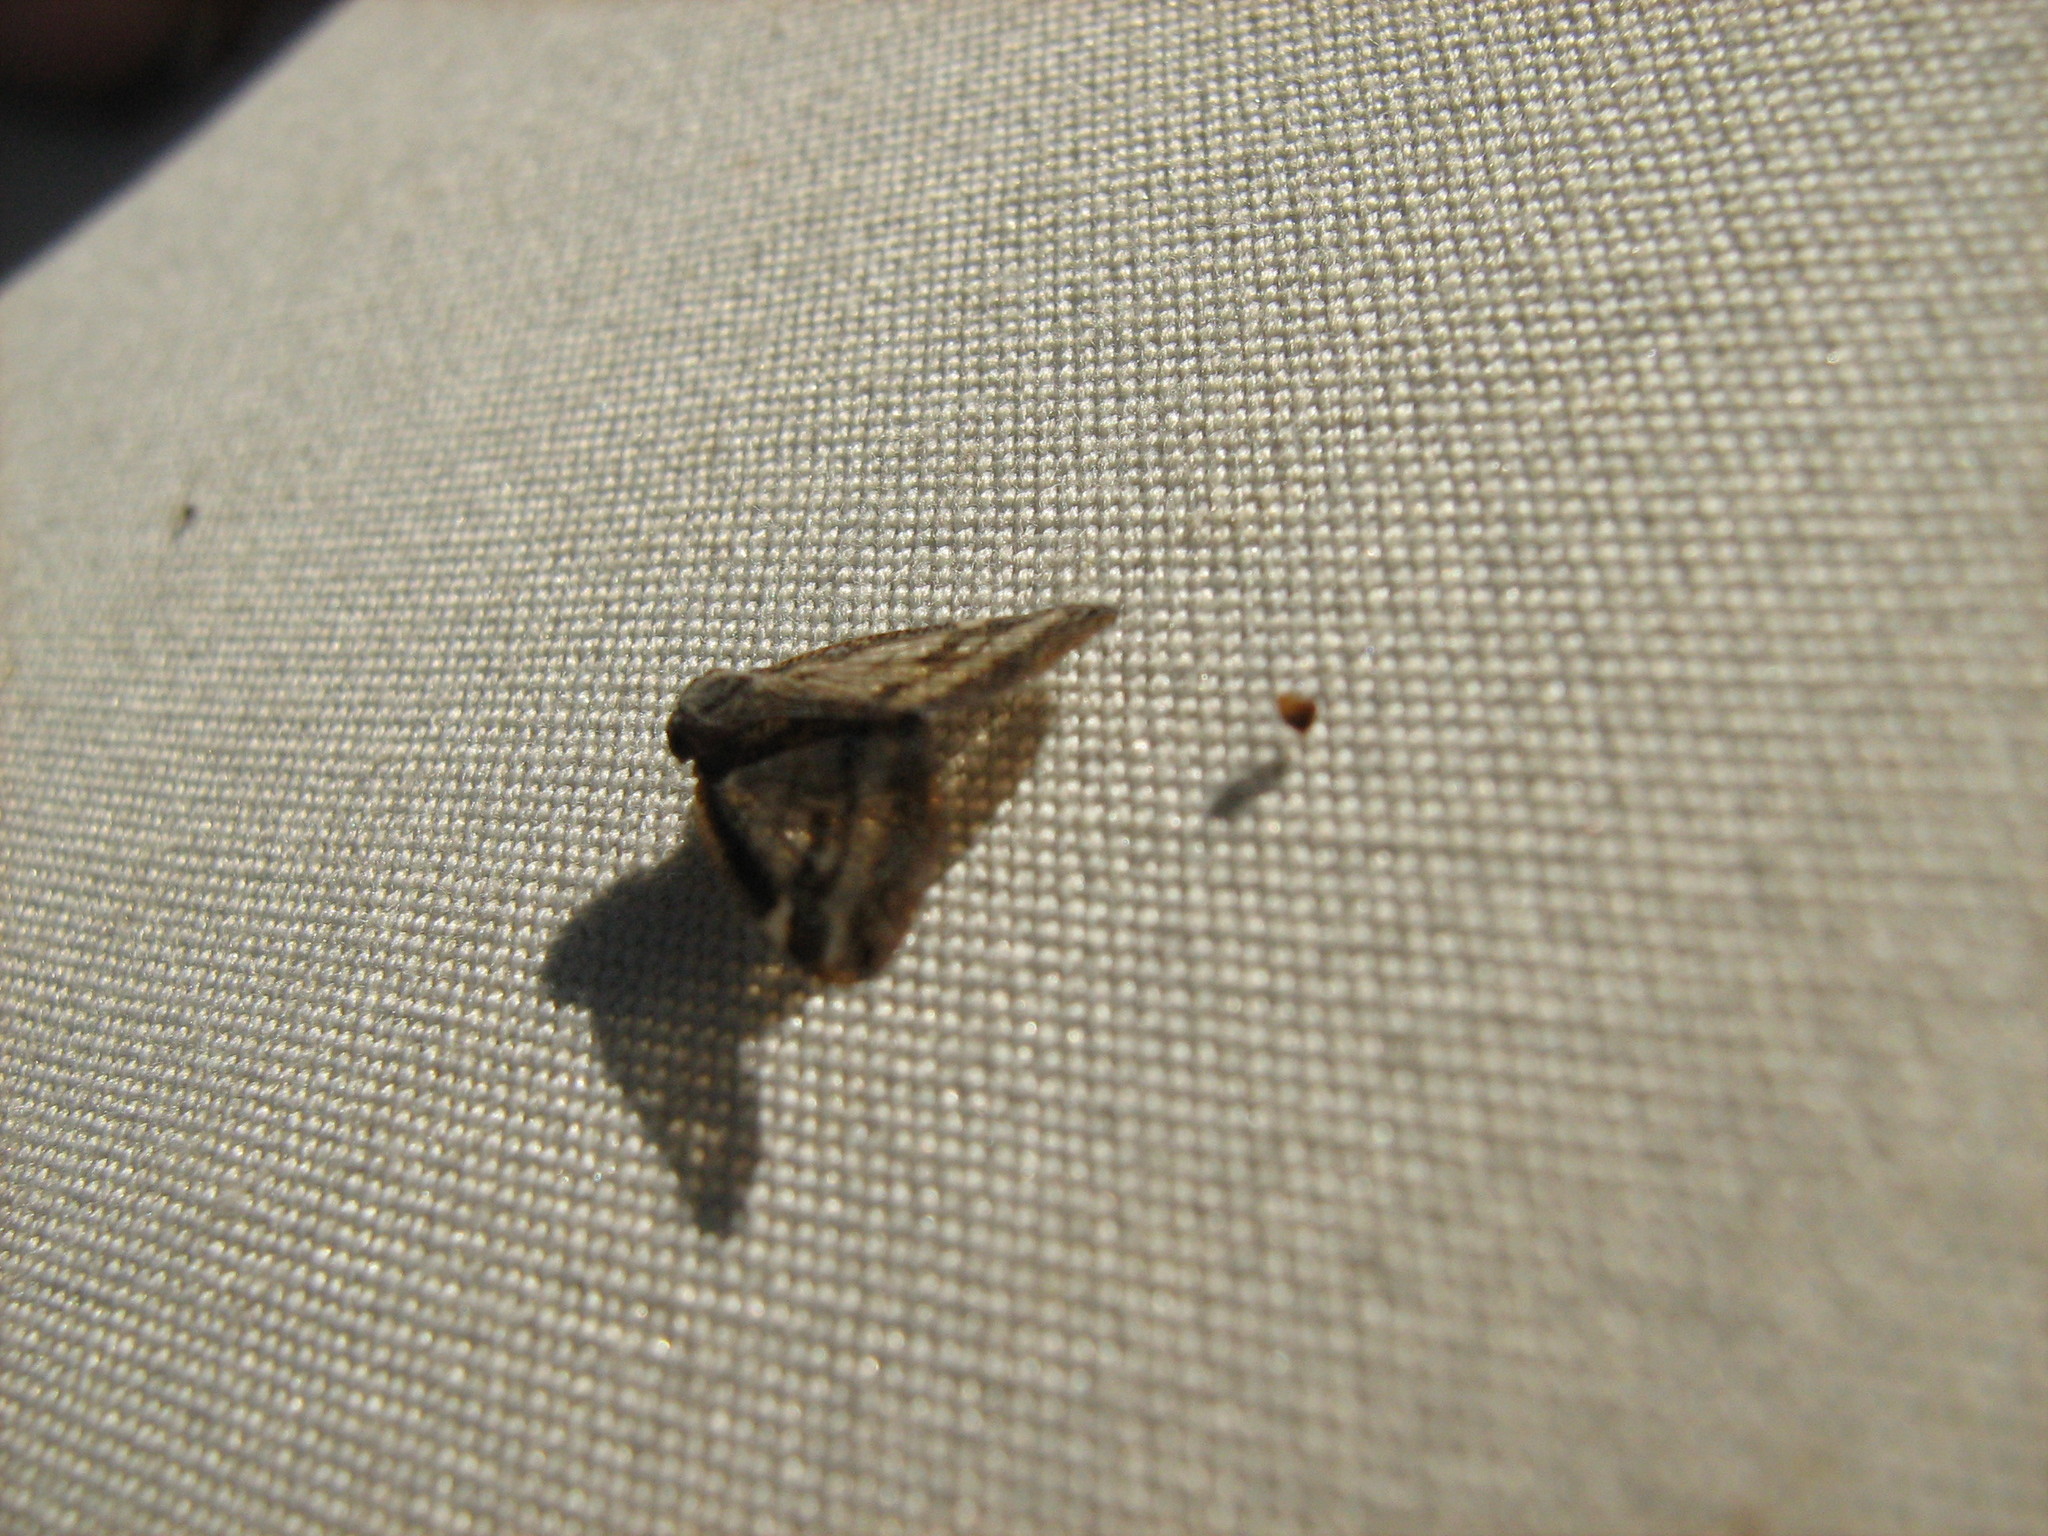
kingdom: Animalia
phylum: Arthropoda
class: Insecta
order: Hemiptera
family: Ricaniidae
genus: Scolypopa
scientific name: Scolypopa australis
